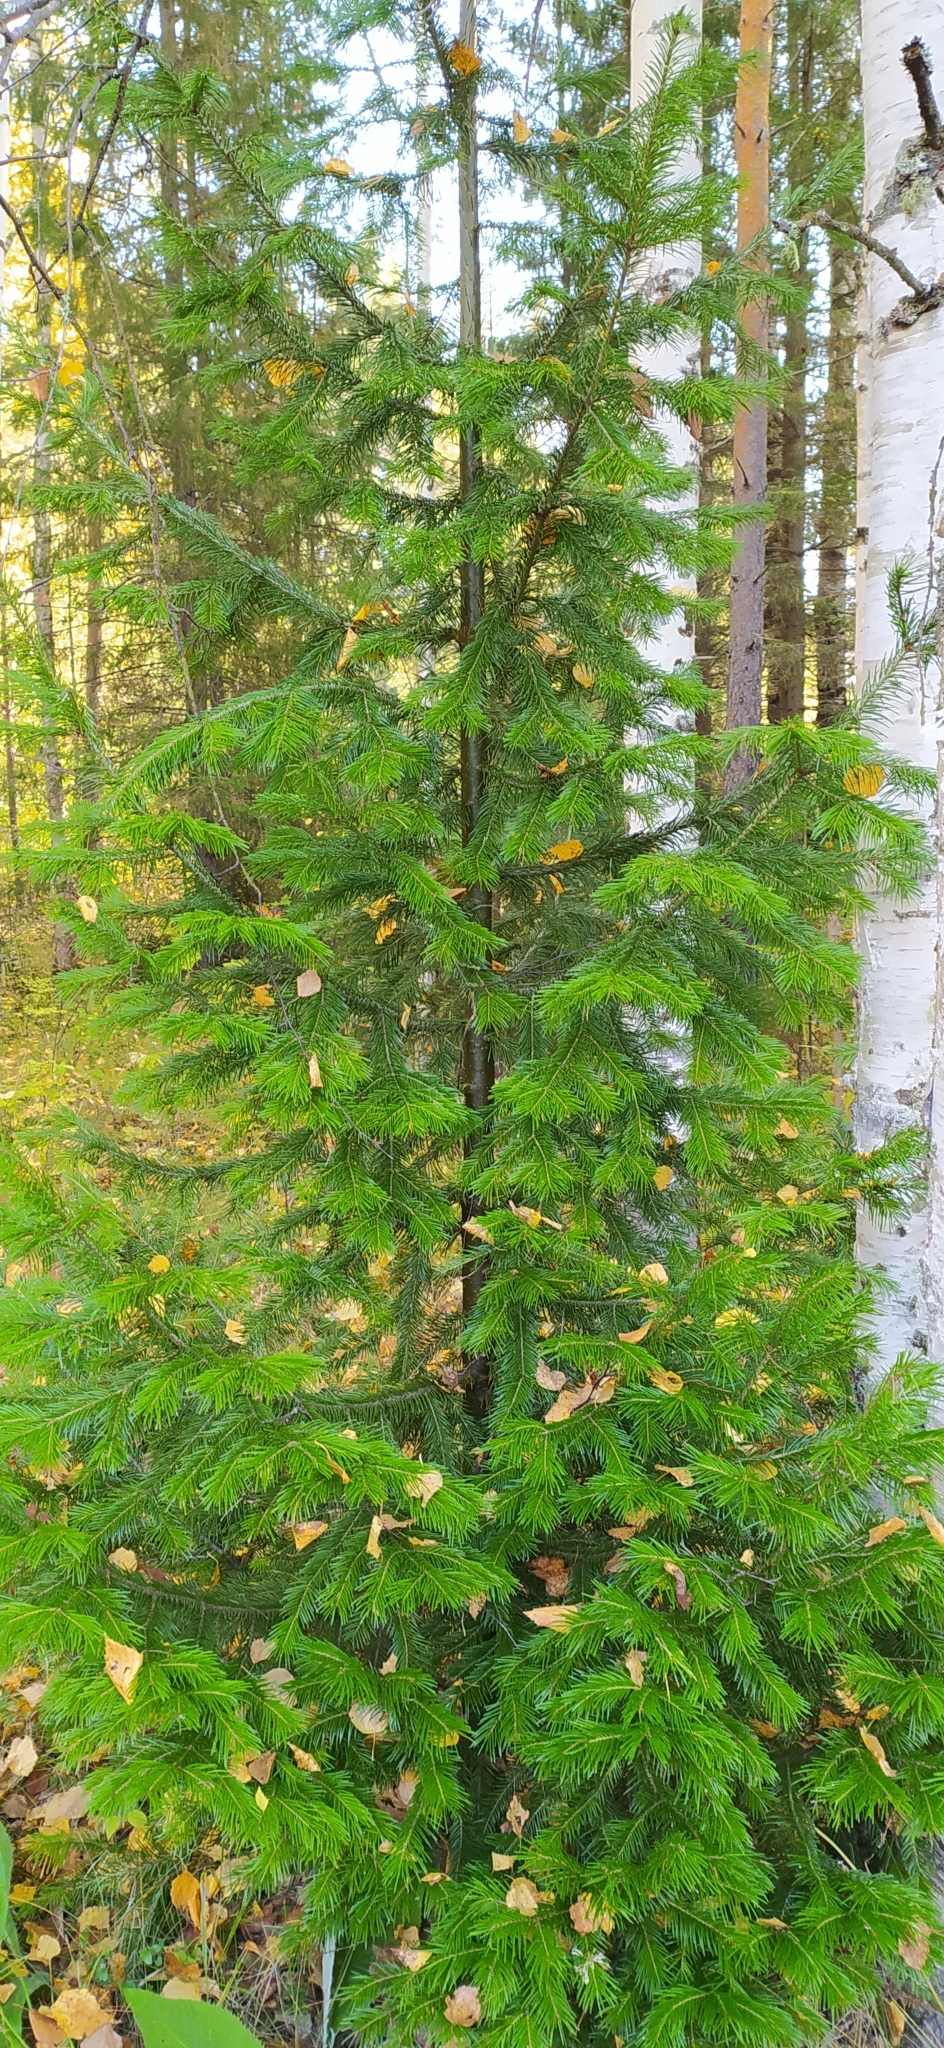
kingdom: Plantae
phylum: Tracheophyta
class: Pinopsida
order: Pinales
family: Pinaceae
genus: Abies
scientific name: Abies sibirica
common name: Siberian fir
